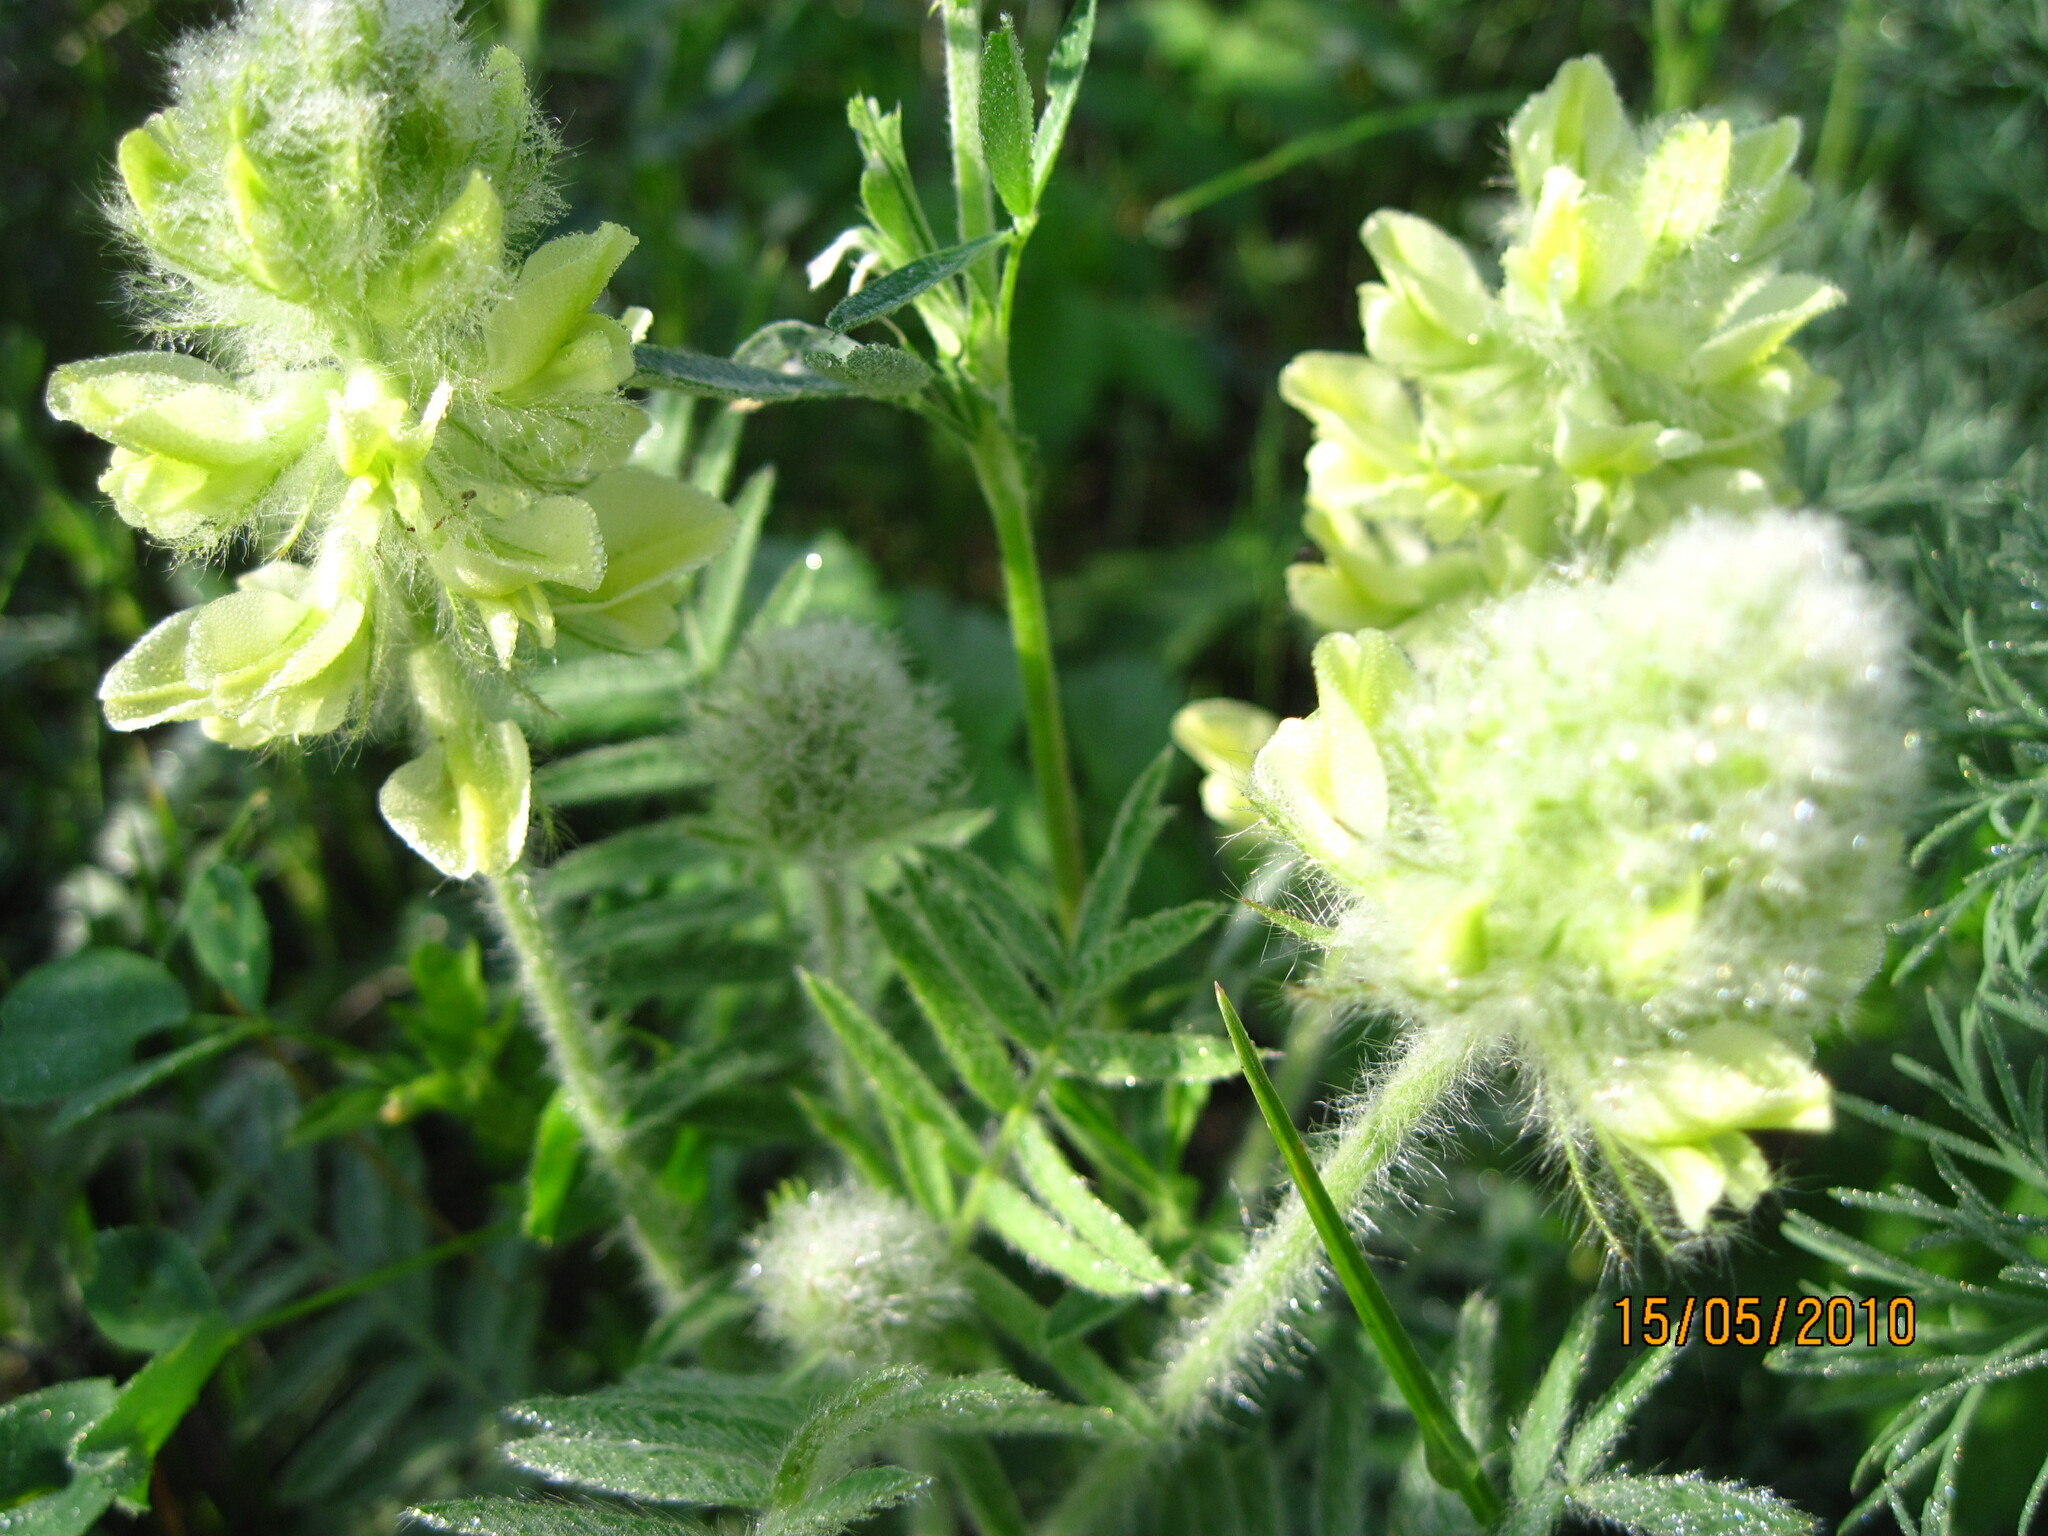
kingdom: Plantae
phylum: Tracheophyta
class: Magnoliopsida
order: Fabales
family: Fabaceae
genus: Oxytropis
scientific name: Oxytropis pilosa
